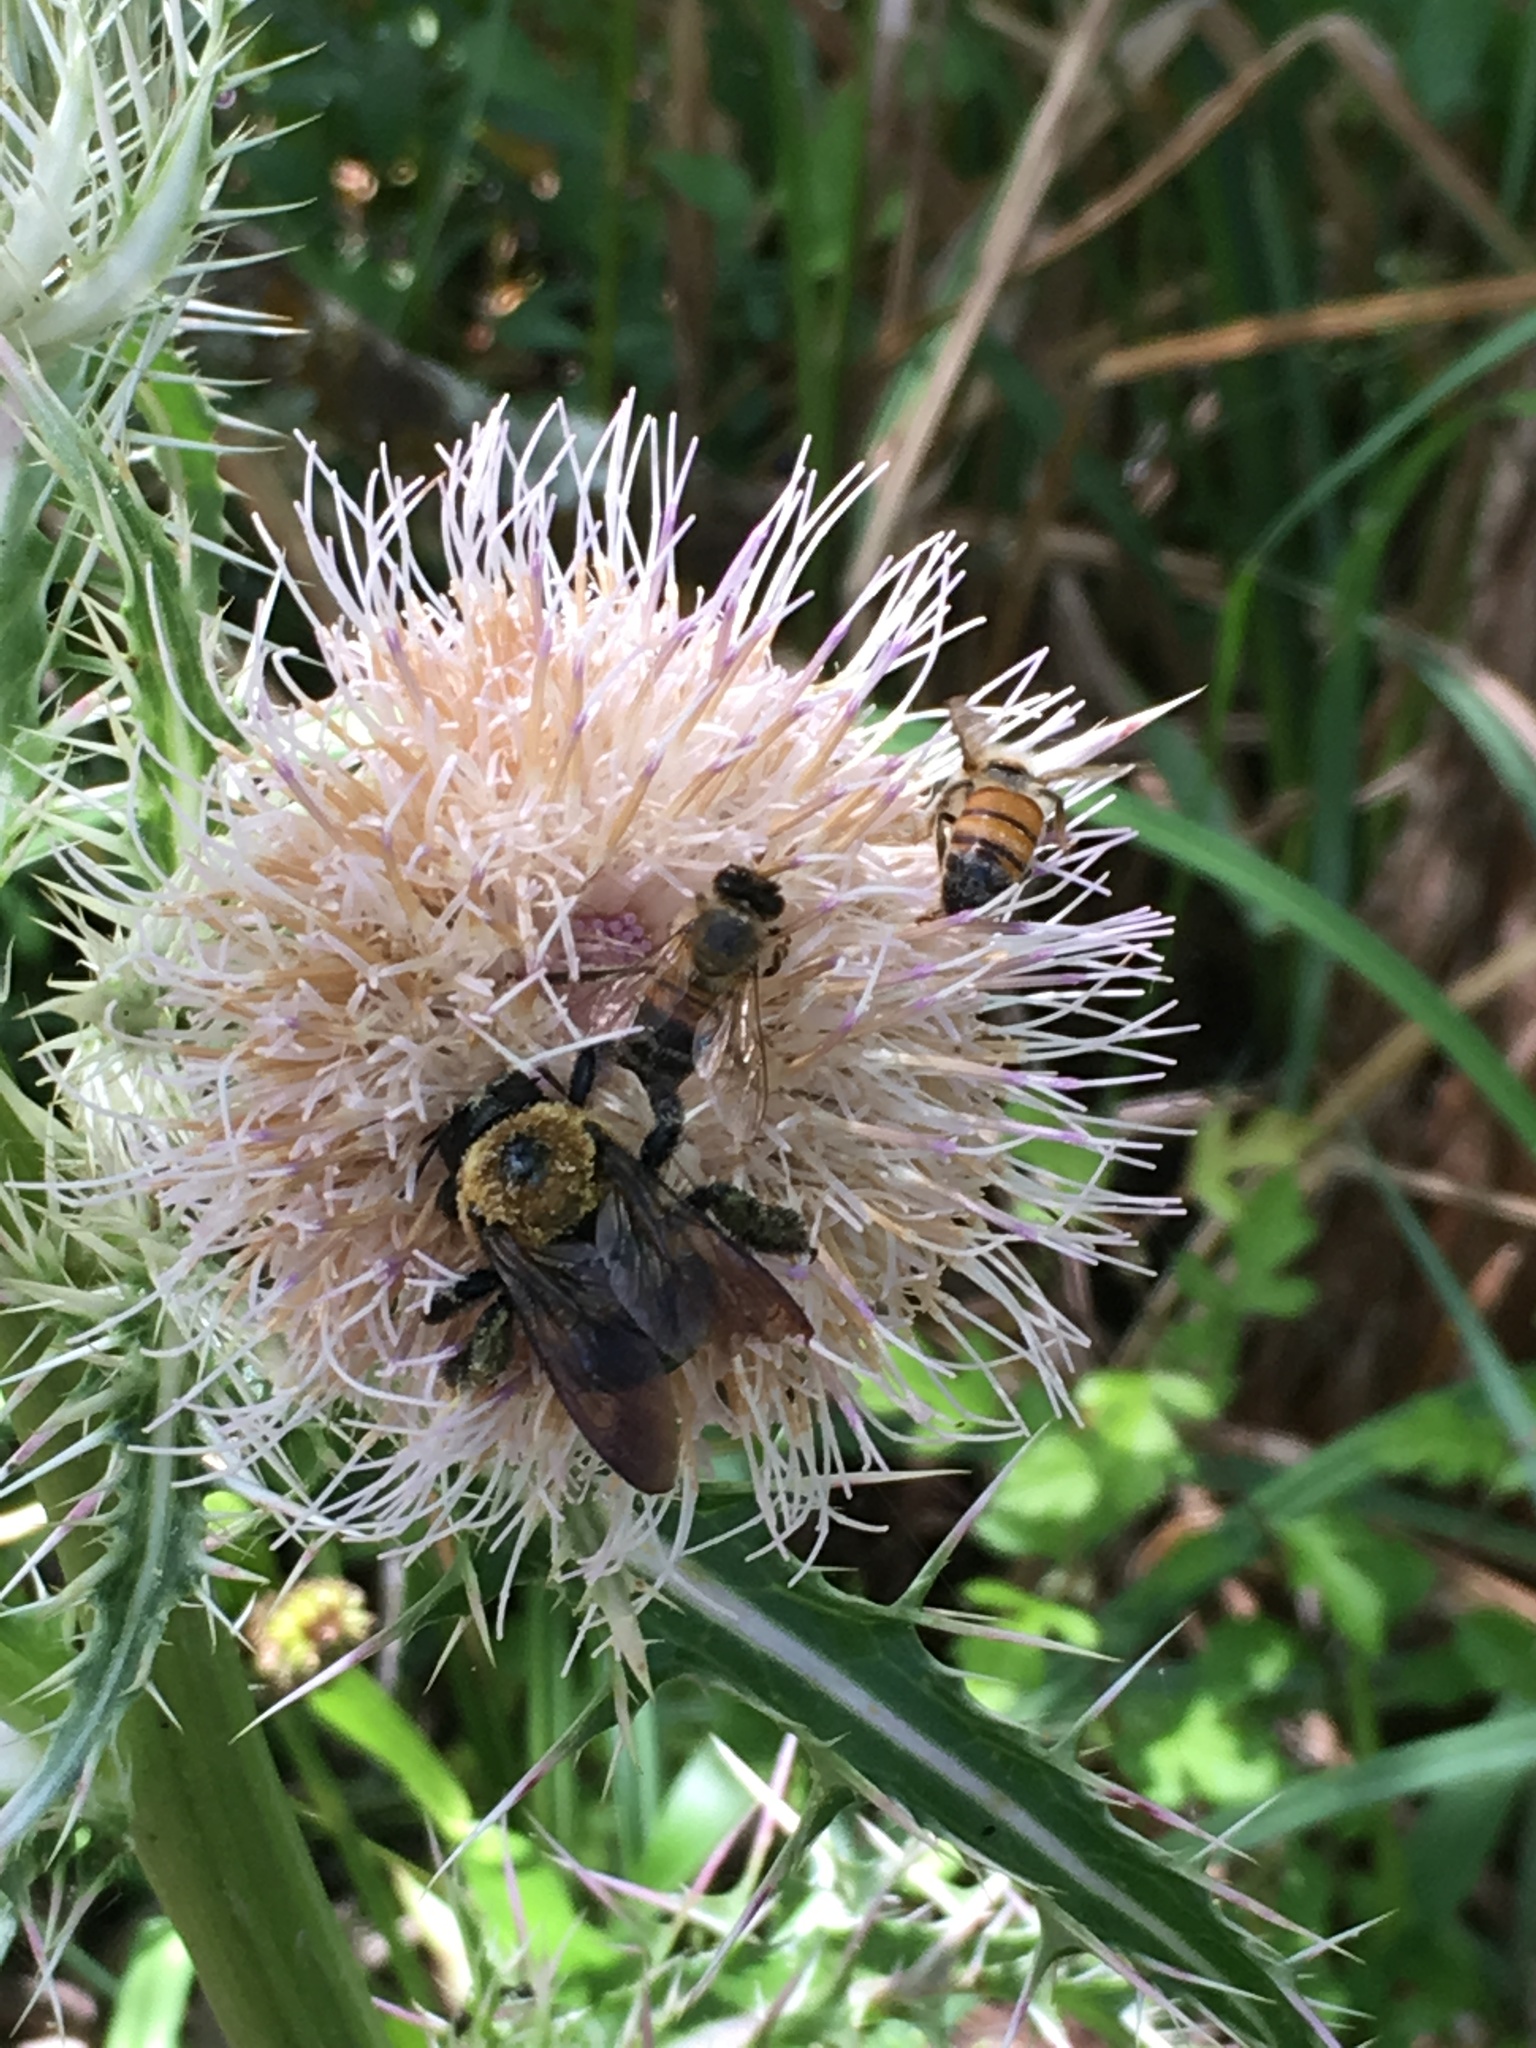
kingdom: Animalia
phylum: Arthropoda
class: Insecta
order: Hymenoptera
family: Apidae
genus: Xylocopa
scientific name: Xylocopa virginica
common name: Carpenter bee
